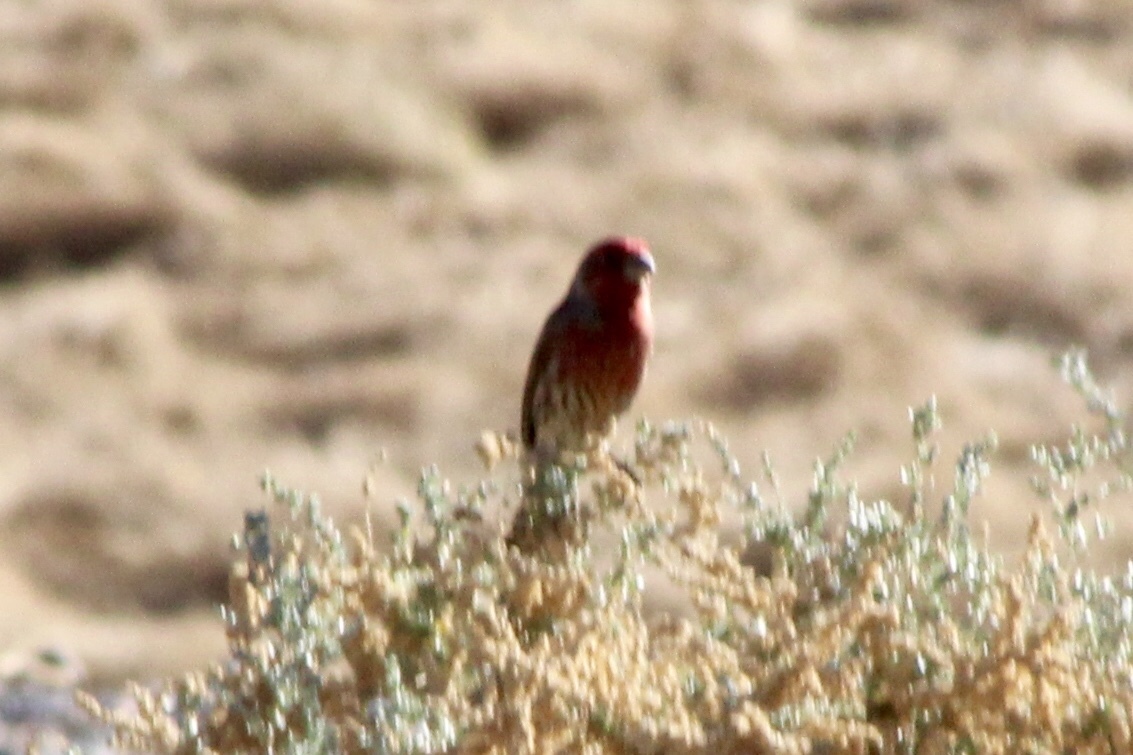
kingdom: Animalia
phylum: Chordata
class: Aves
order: Passeriformes
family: Fringillidae
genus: Haemorhous
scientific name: Haemorhous mexicanus
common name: House finch
